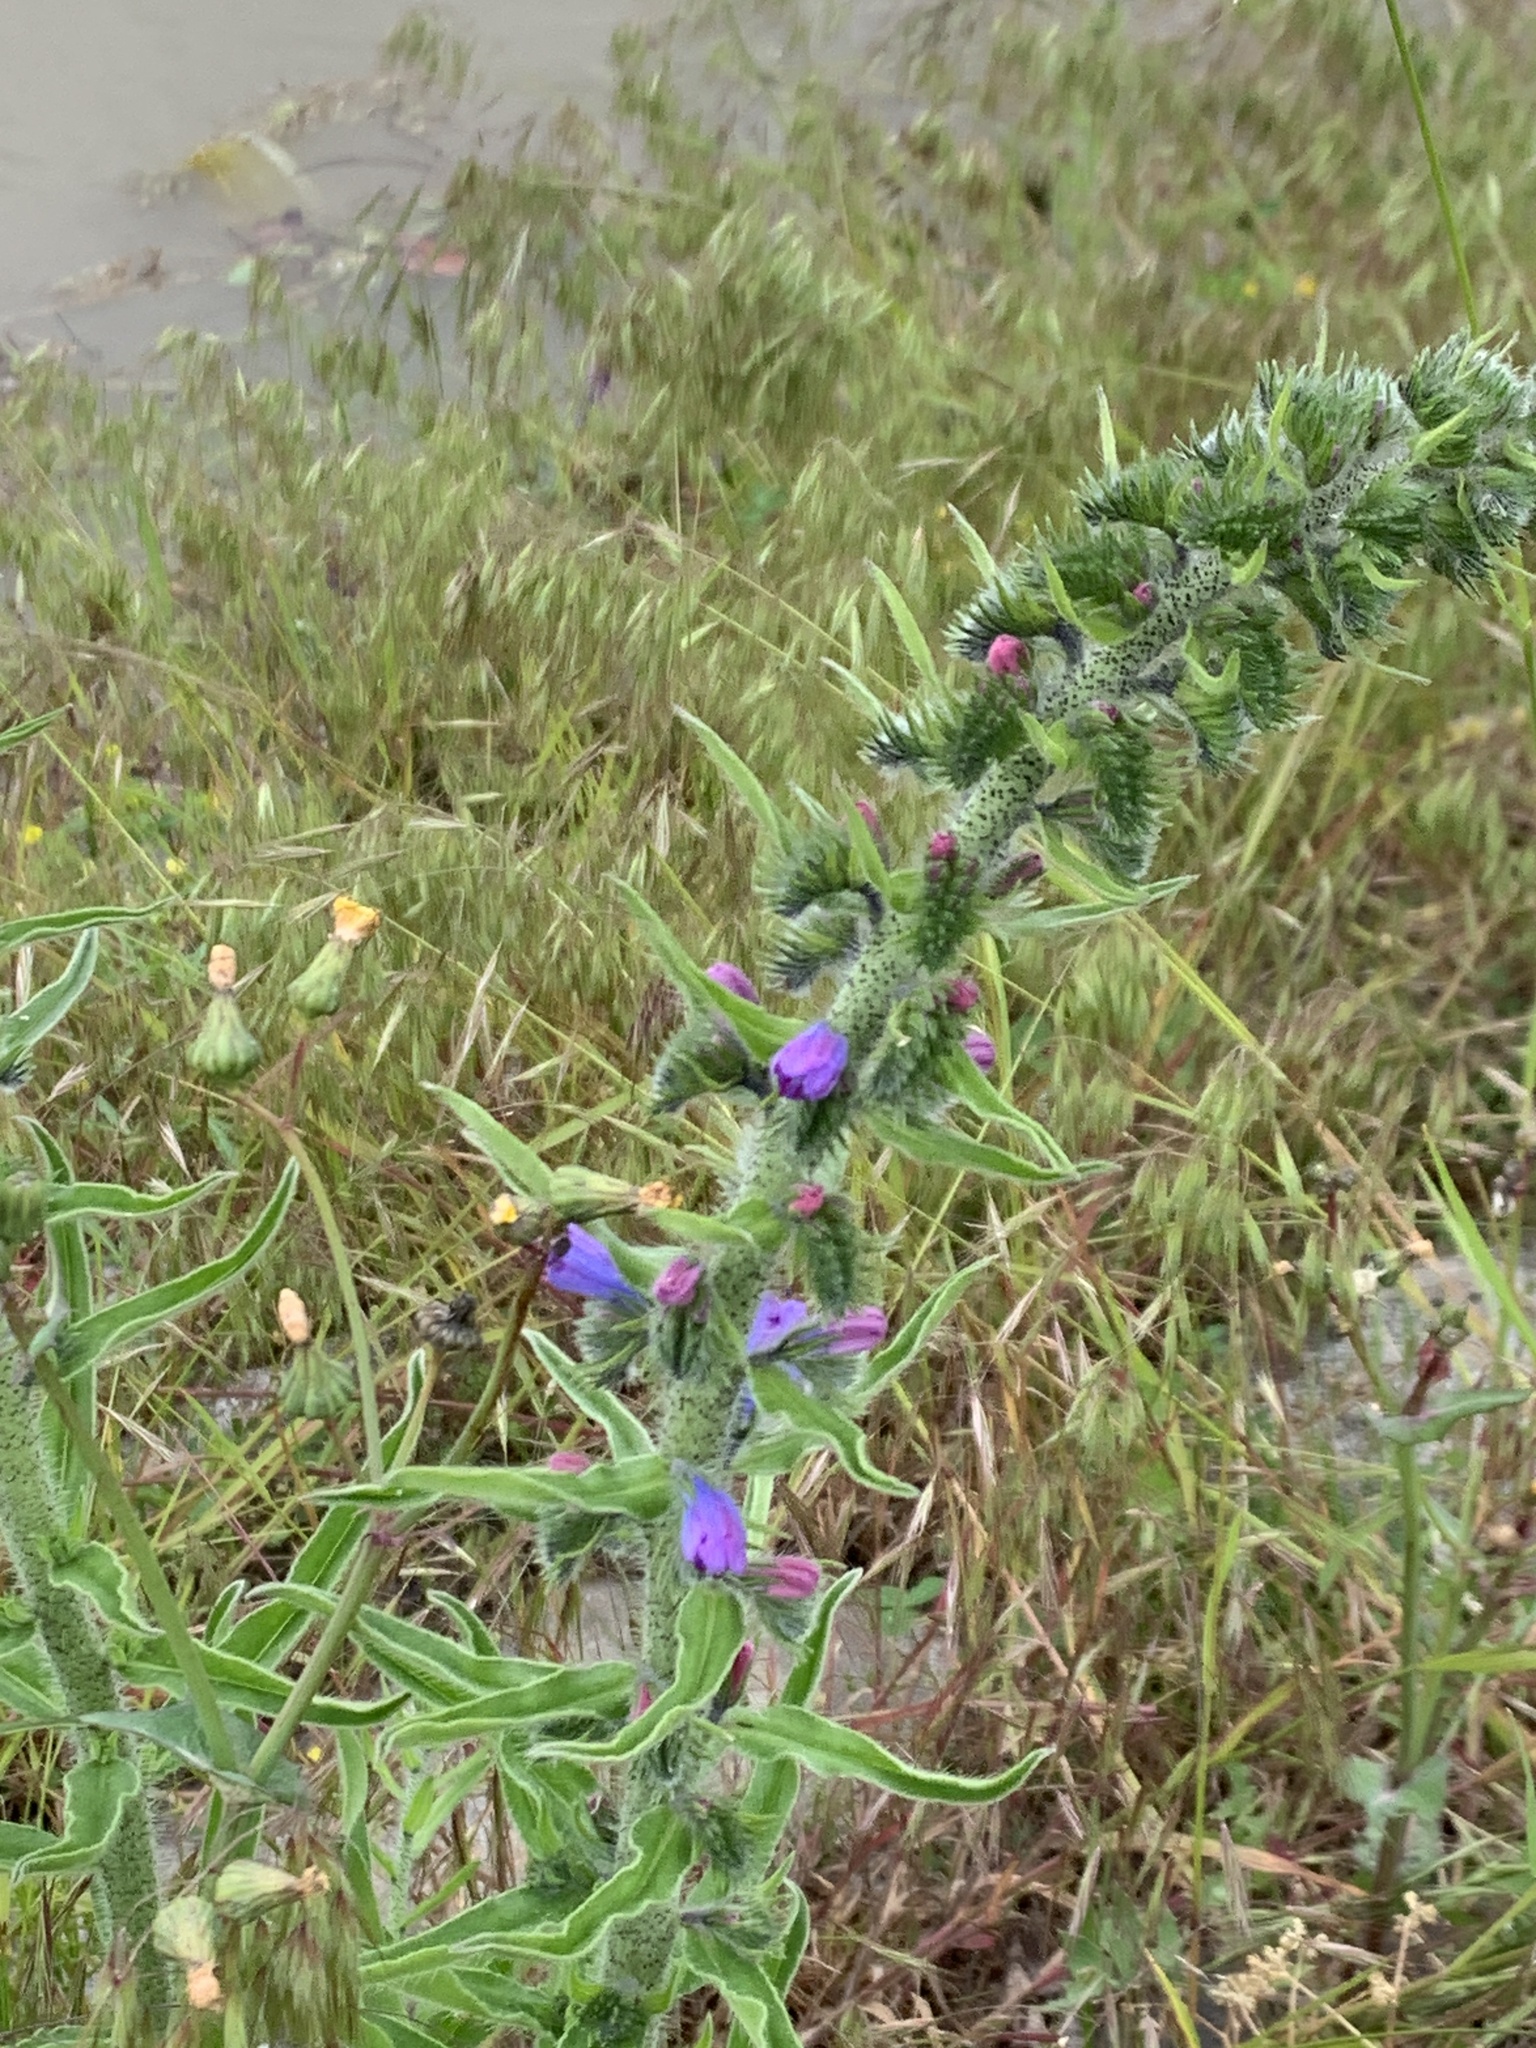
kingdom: Plantae
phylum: Tracheophyta
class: Magnoliopsida
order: Boraginales
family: Boraginaceae
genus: Echium
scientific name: Echium vulgare
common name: Common viper's bugloss
